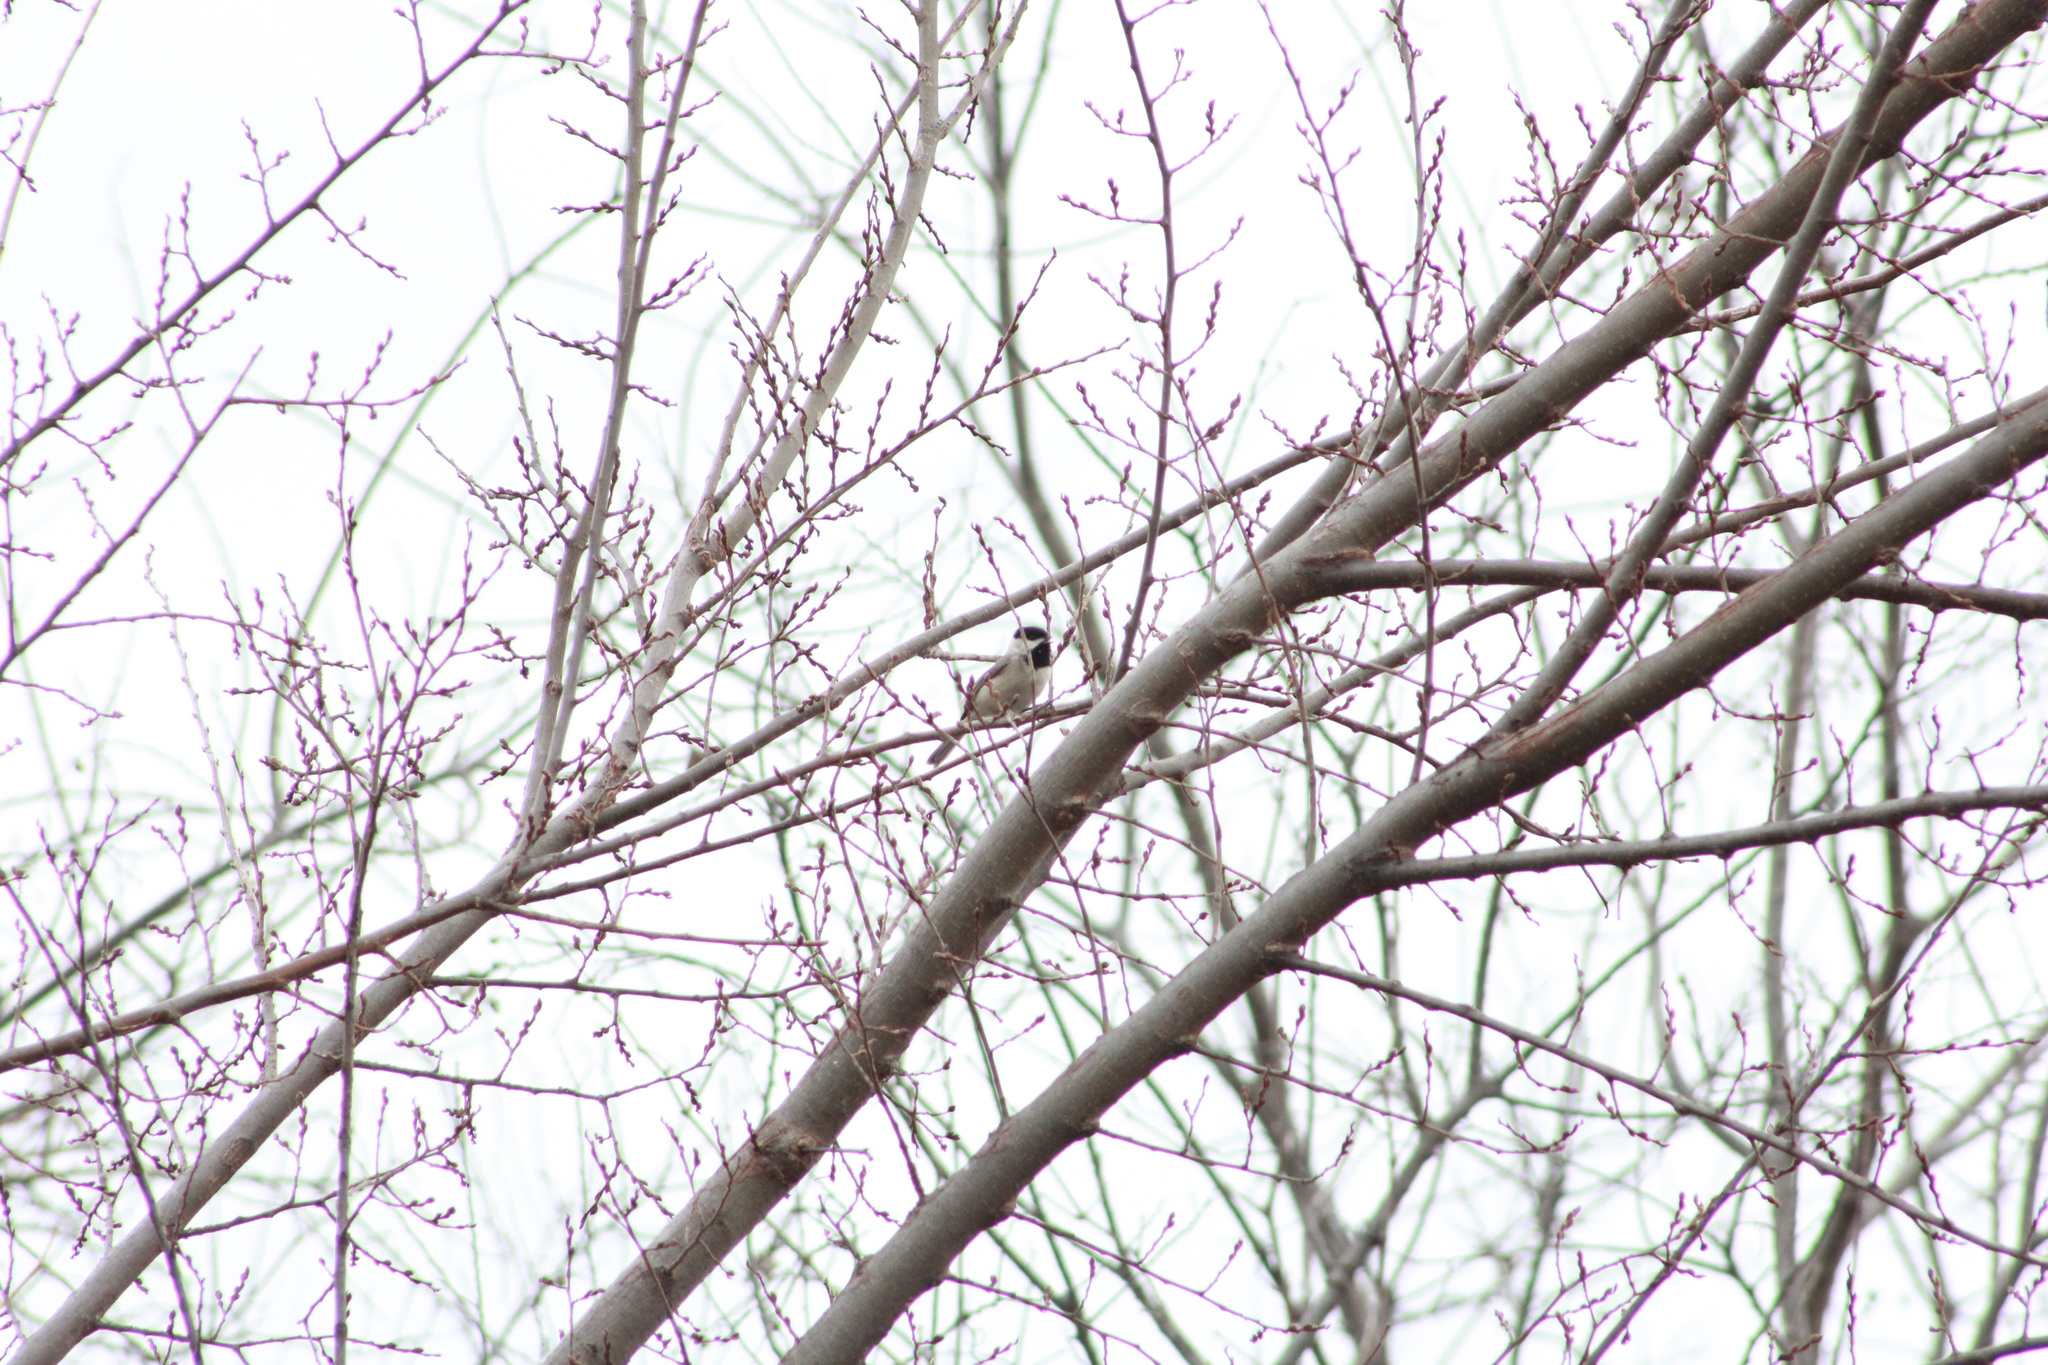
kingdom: Animalia
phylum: Chordata
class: Aves
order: Passeriformes
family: Paridae
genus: Poecile
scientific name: Poecile carolinensis
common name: Carolina chickadee
